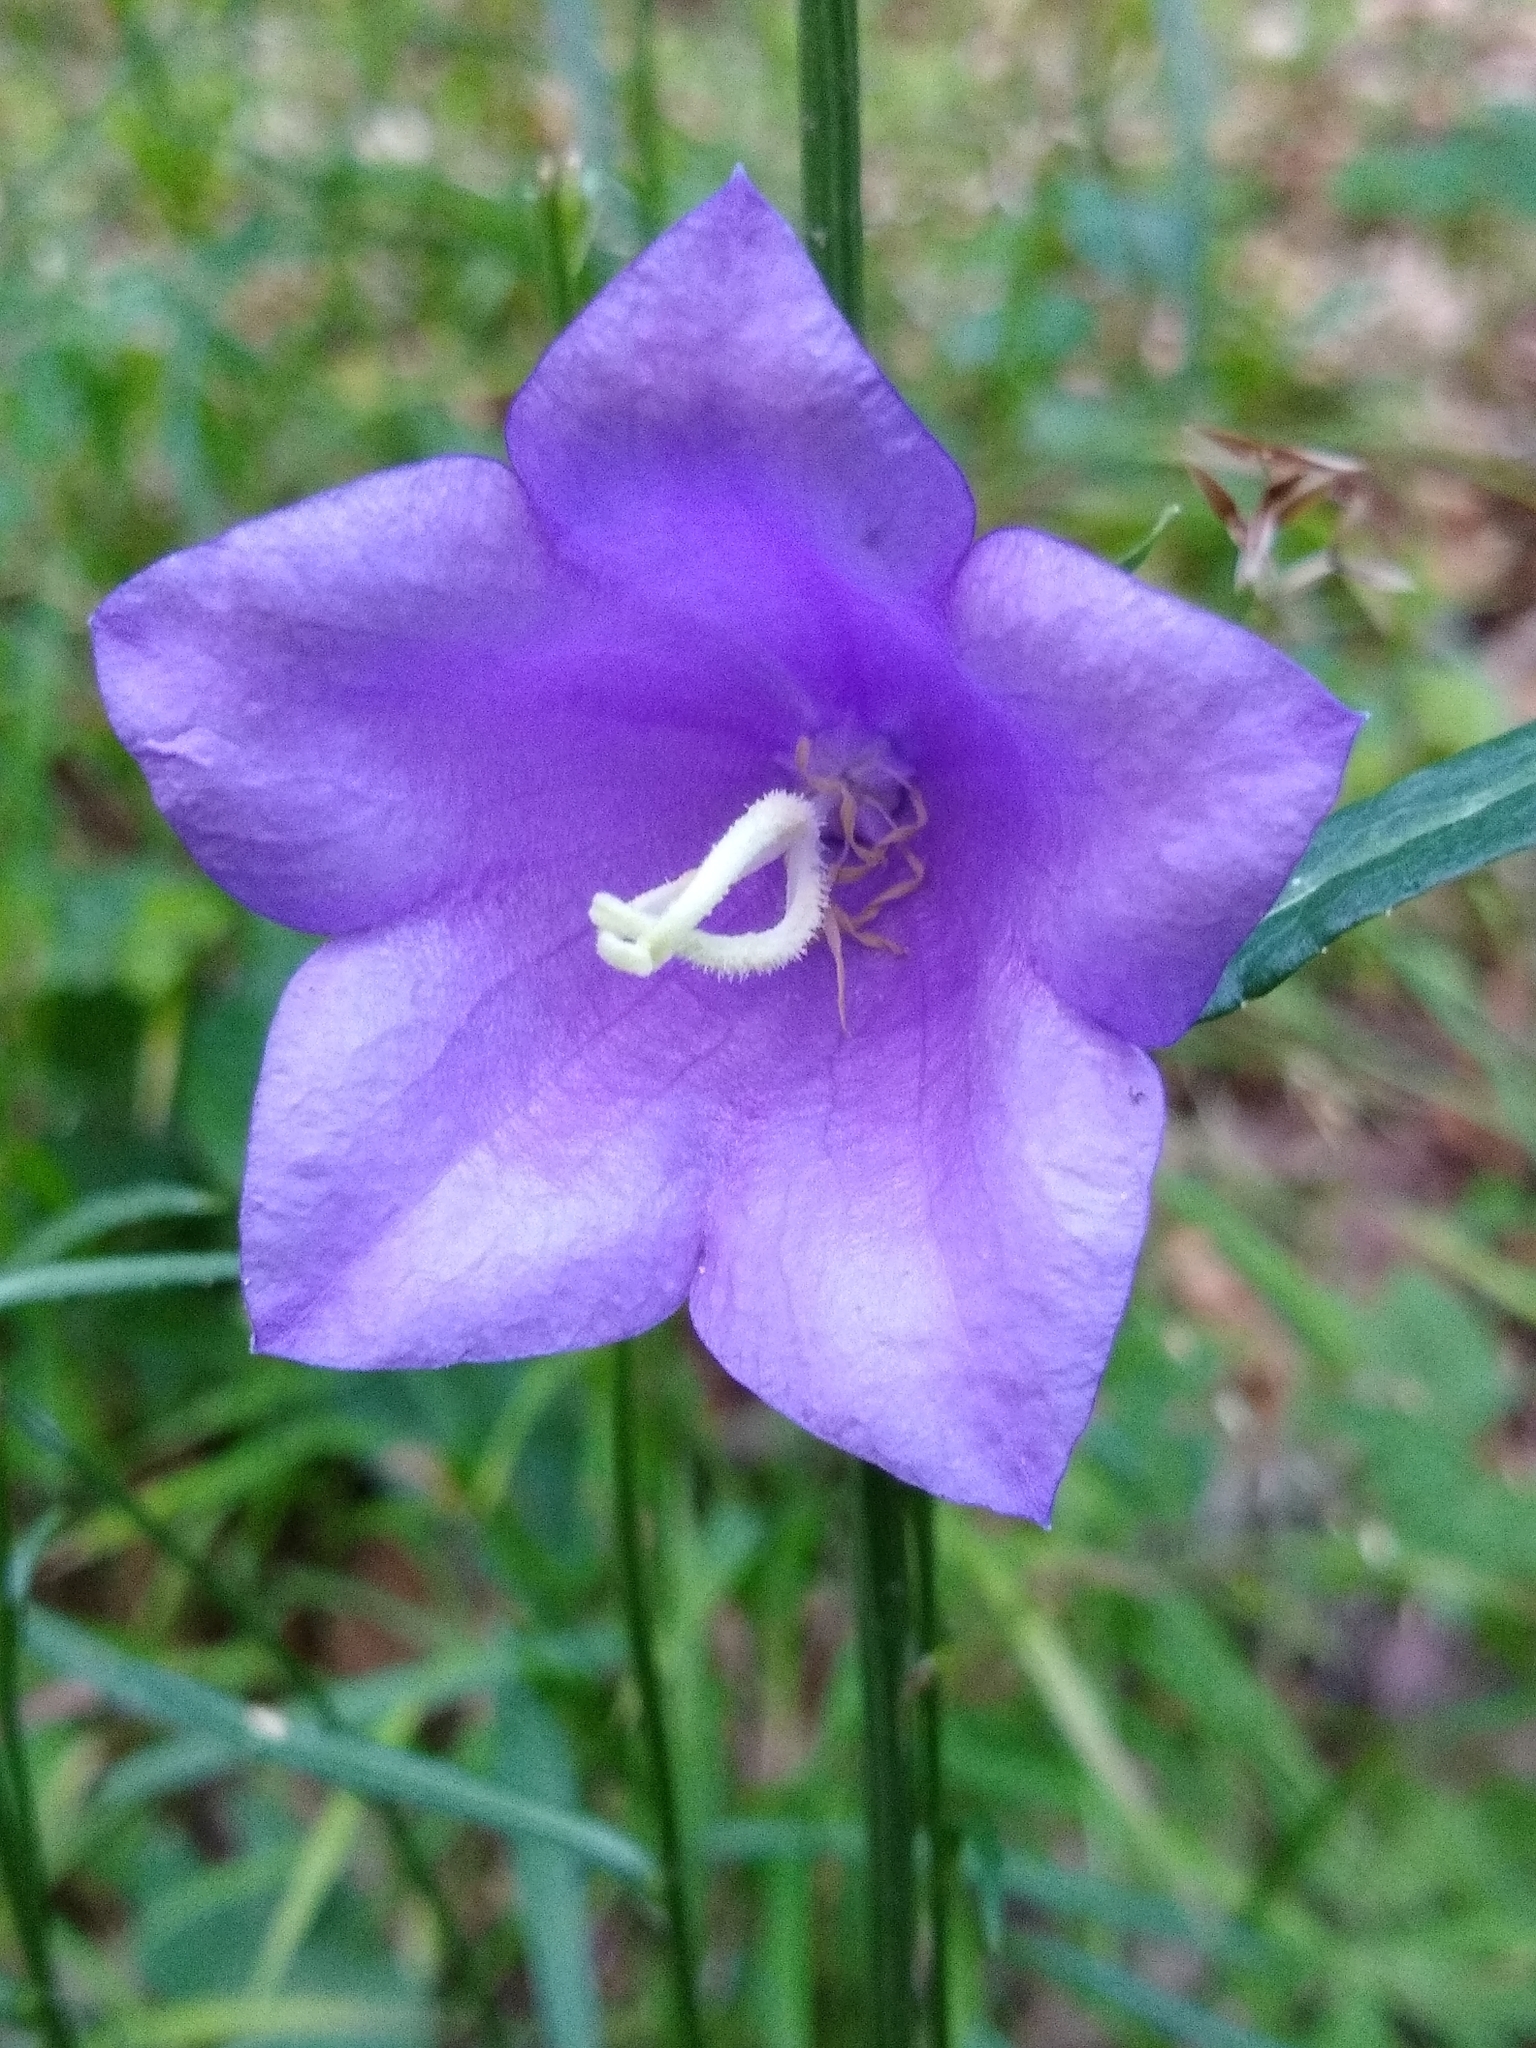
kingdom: Plantae
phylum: Tracheophyta
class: Magnoliopsida
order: Asterales
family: Campanulaceae
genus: Campanula
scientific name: Campanula persicifolia
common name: Peach-leaved bellflower
